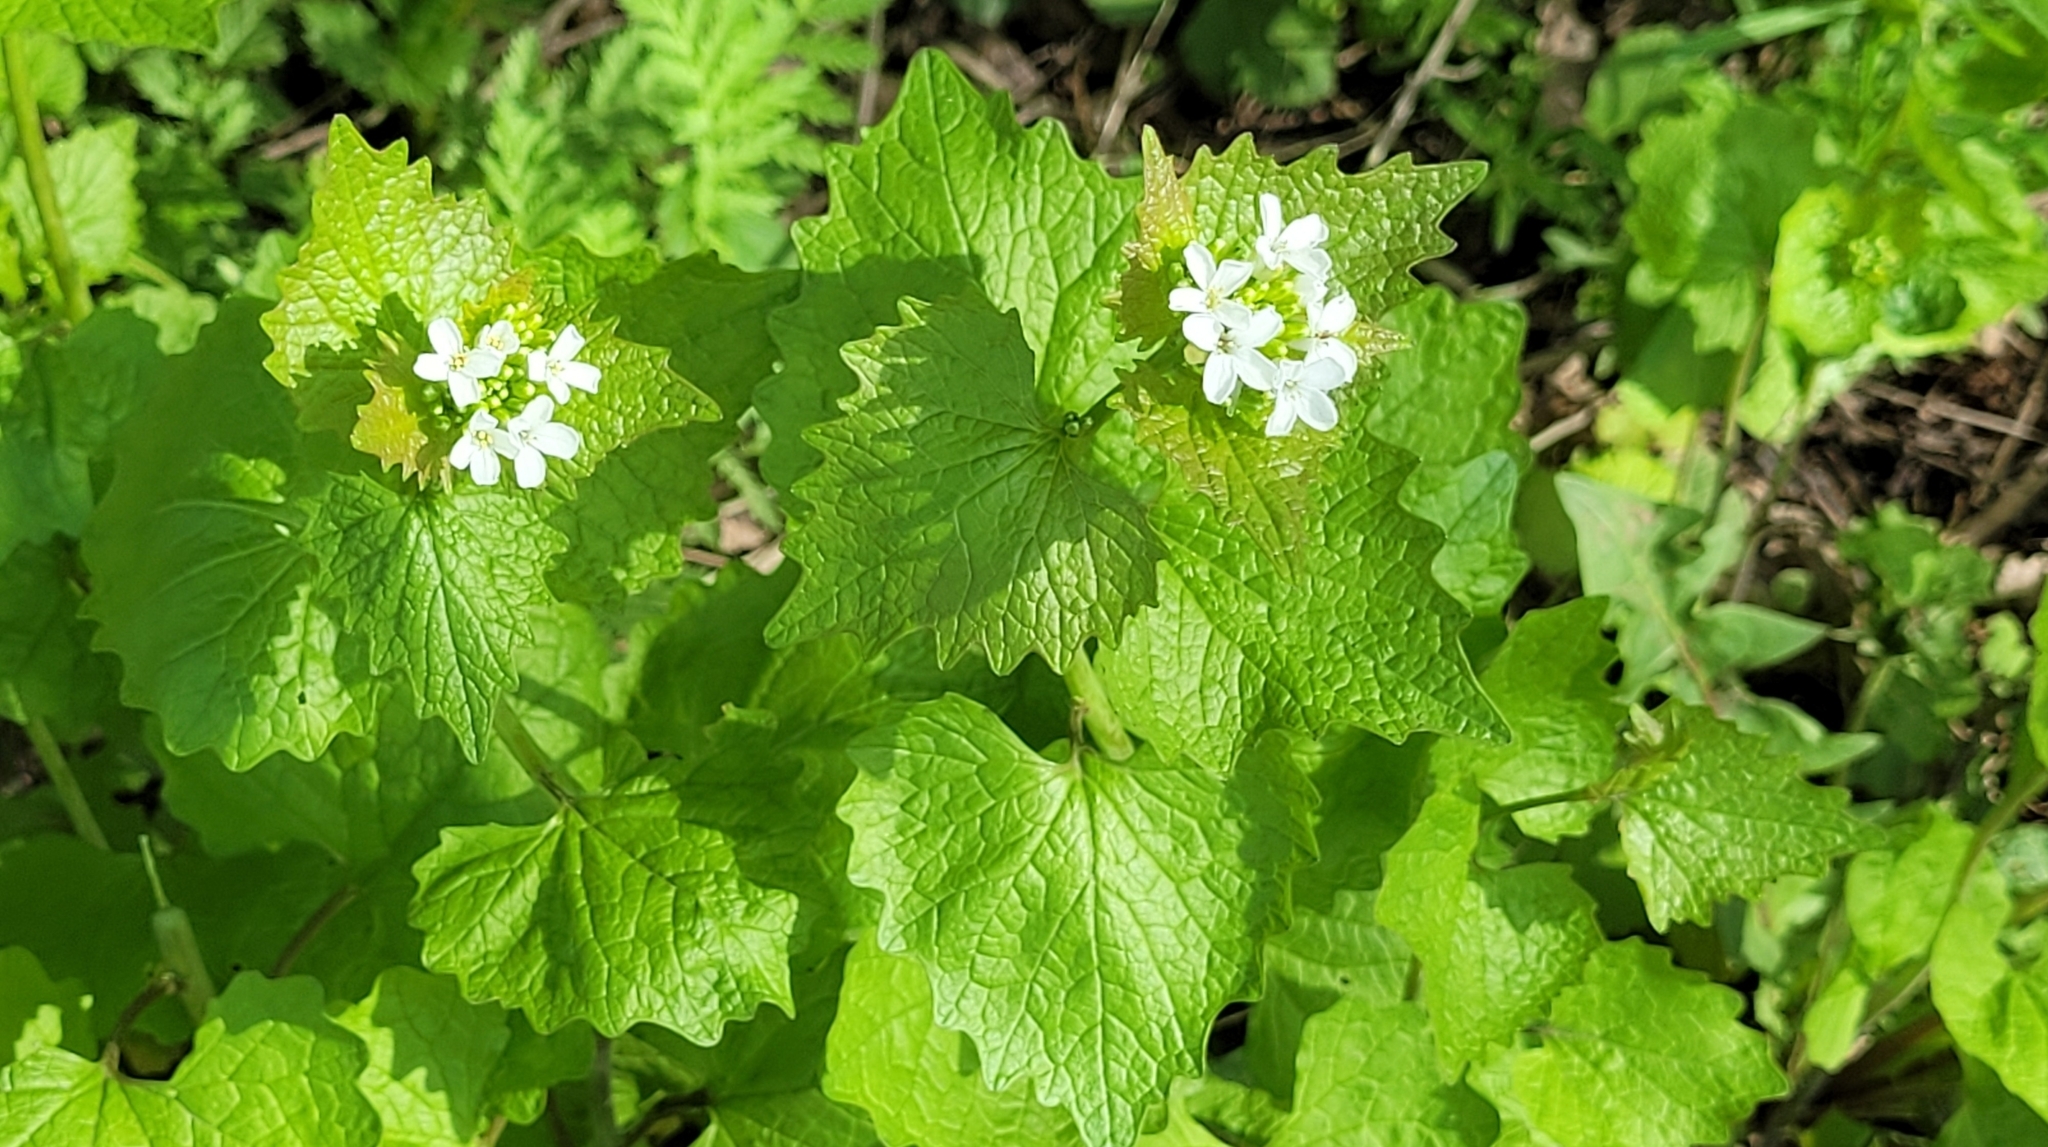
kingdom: Plantae
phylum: Tracheophyta
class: Magnoliopsida
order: Brassicales
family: Brassicaceae
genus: Alliaria
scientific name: Alliaria petiolata
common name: Garlic mustard
